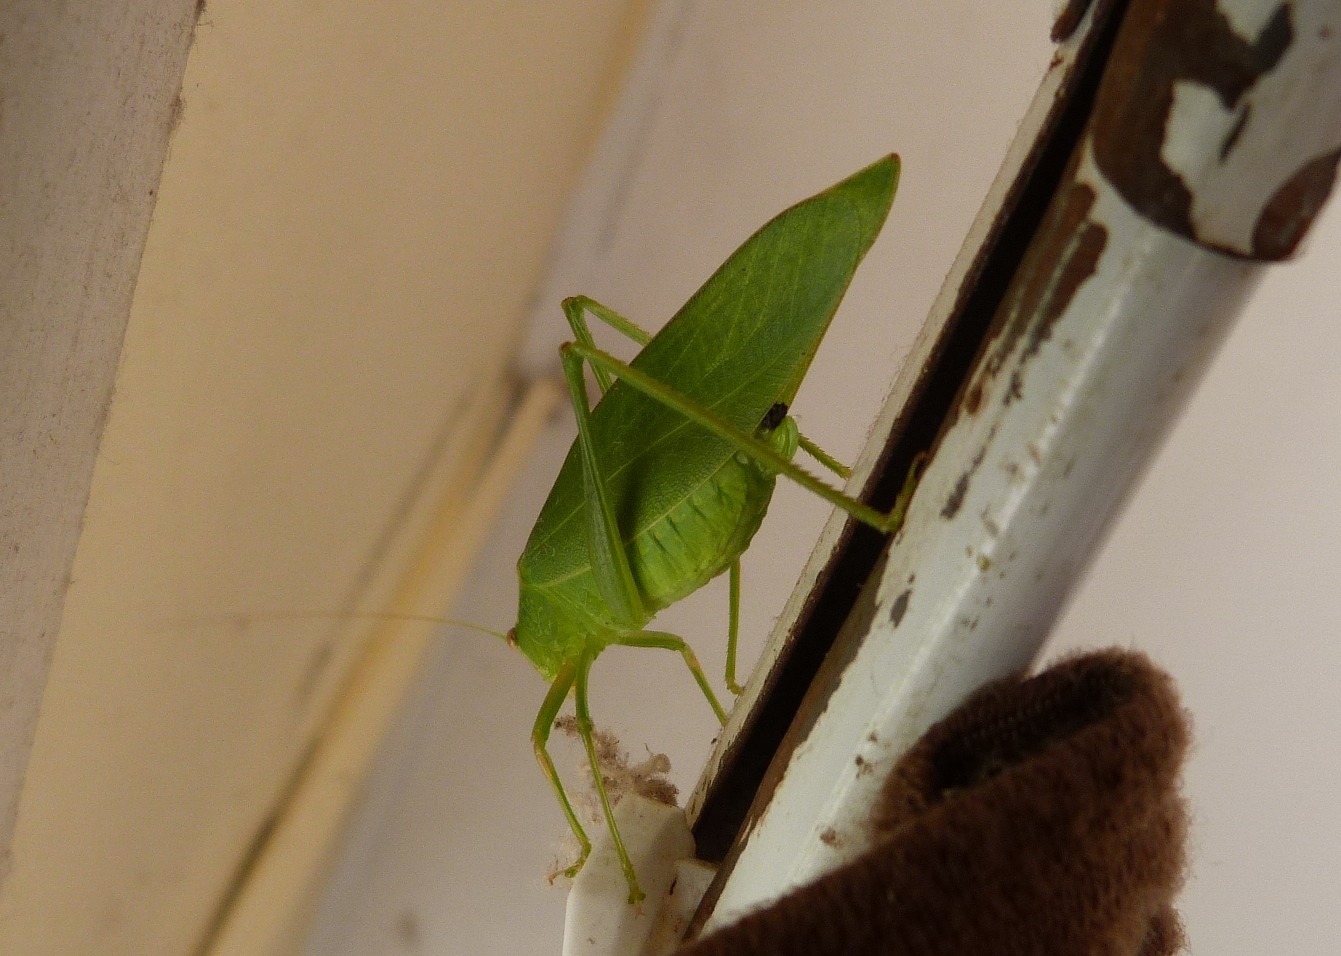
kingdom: Animalia
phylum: Arthropoda
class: Insecta
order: Orthoptera
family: Tettigoniidae
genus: Caedicia
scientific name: Caedicia simplex
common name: Common garden katydid
